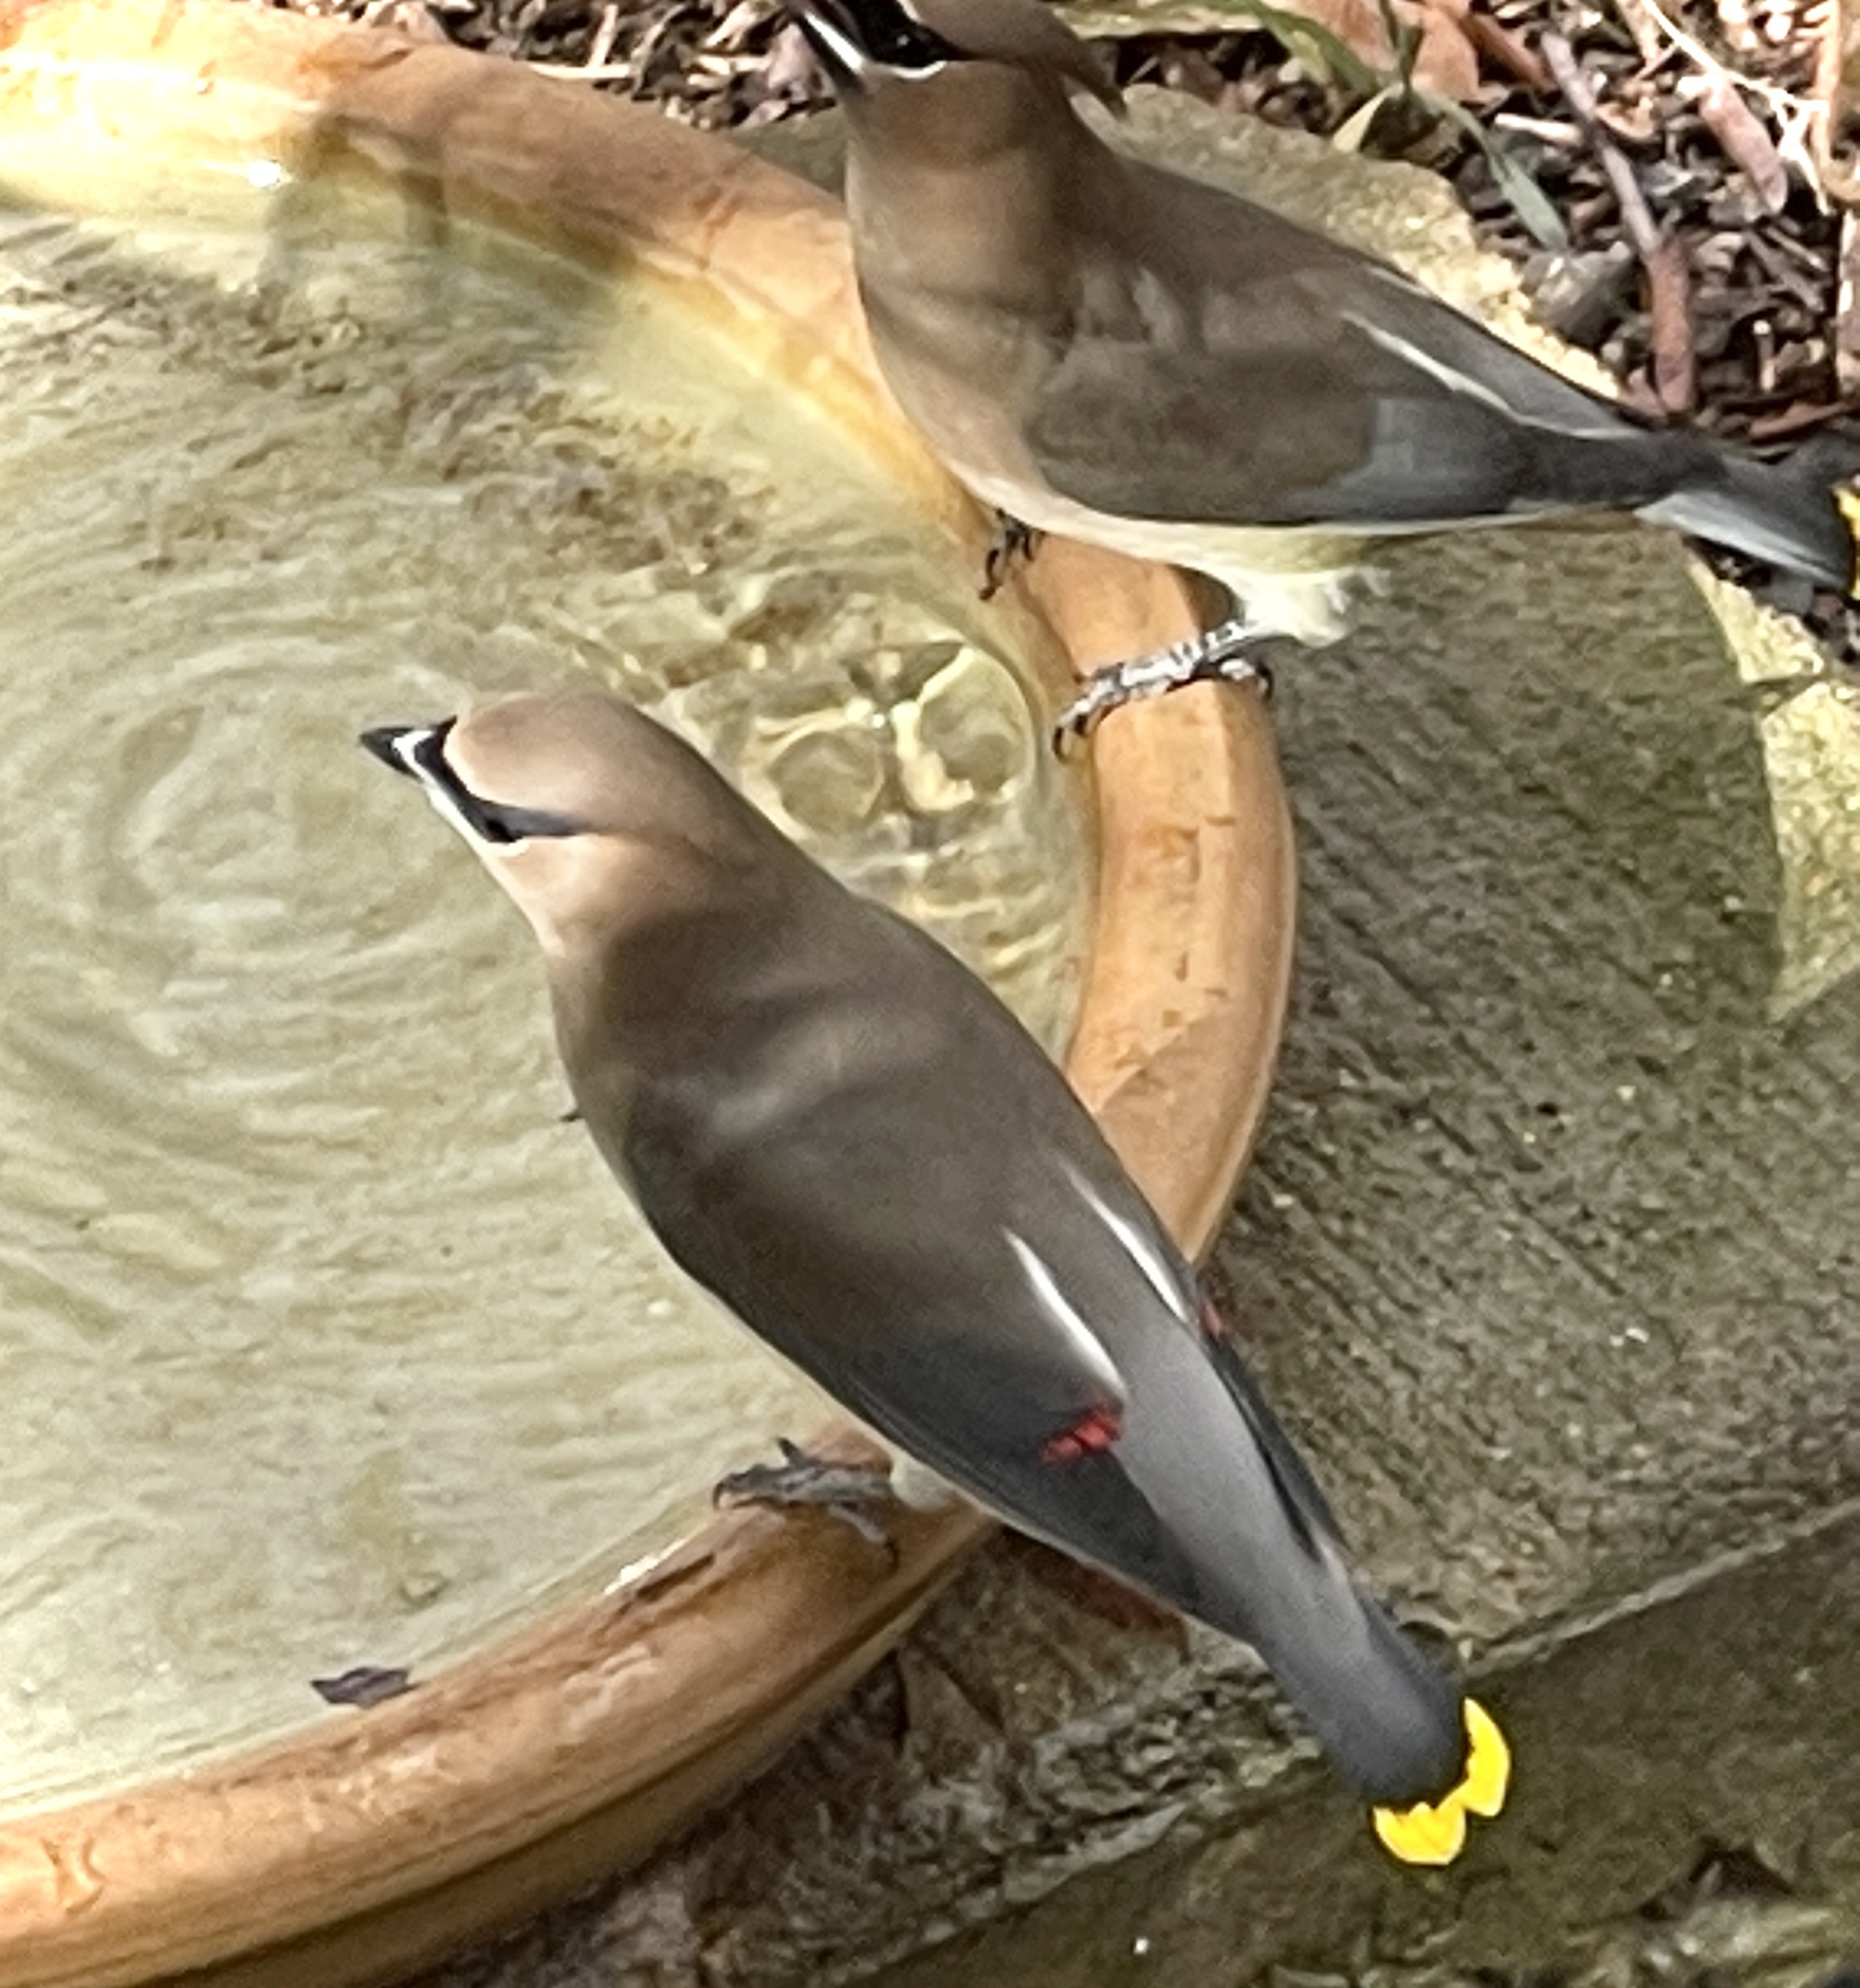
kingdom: Animalia
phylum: Chordata
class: Aves
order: Passeriformes
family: Bombycillidae
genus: Bombycilla
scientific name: Bombycilla cedrorum
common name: Cedar waxwing
